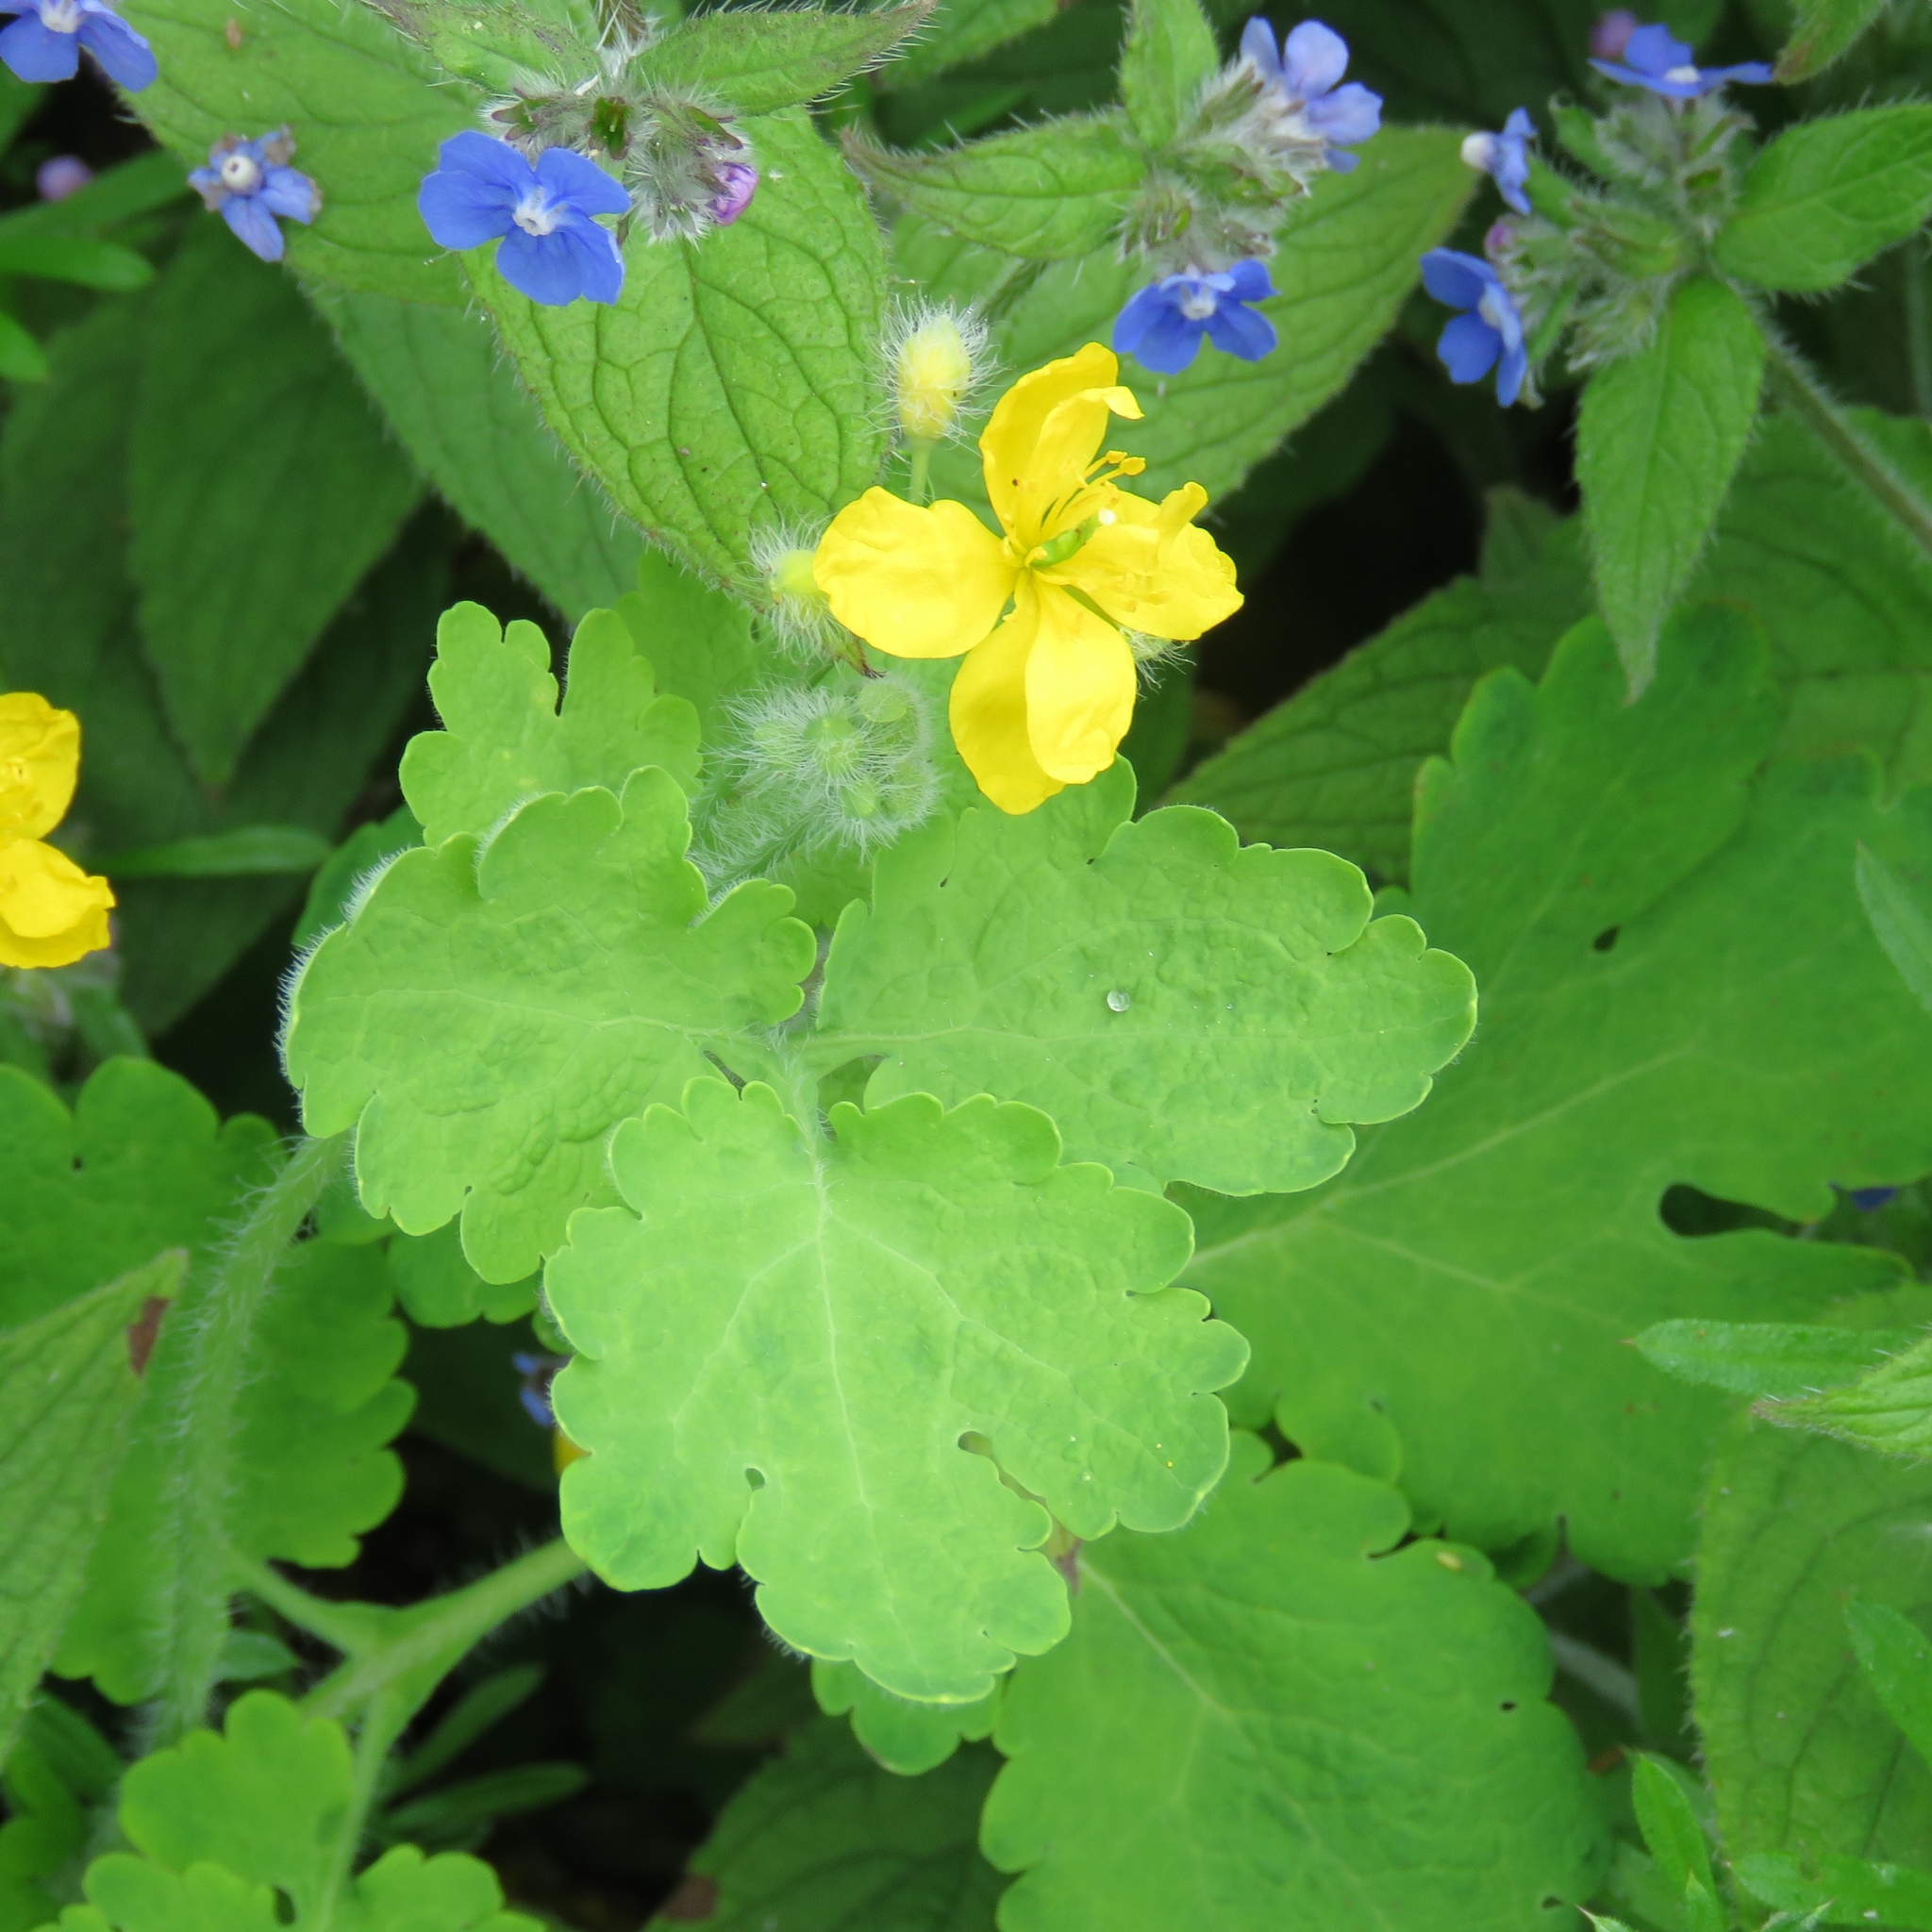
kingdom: Plantae
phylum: Tracheophyta
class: Magnoliopsida
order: Ranunculales
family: Papaveraceae
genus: Chelidonium
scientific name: Chelidonium majus
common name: Greater celandine
